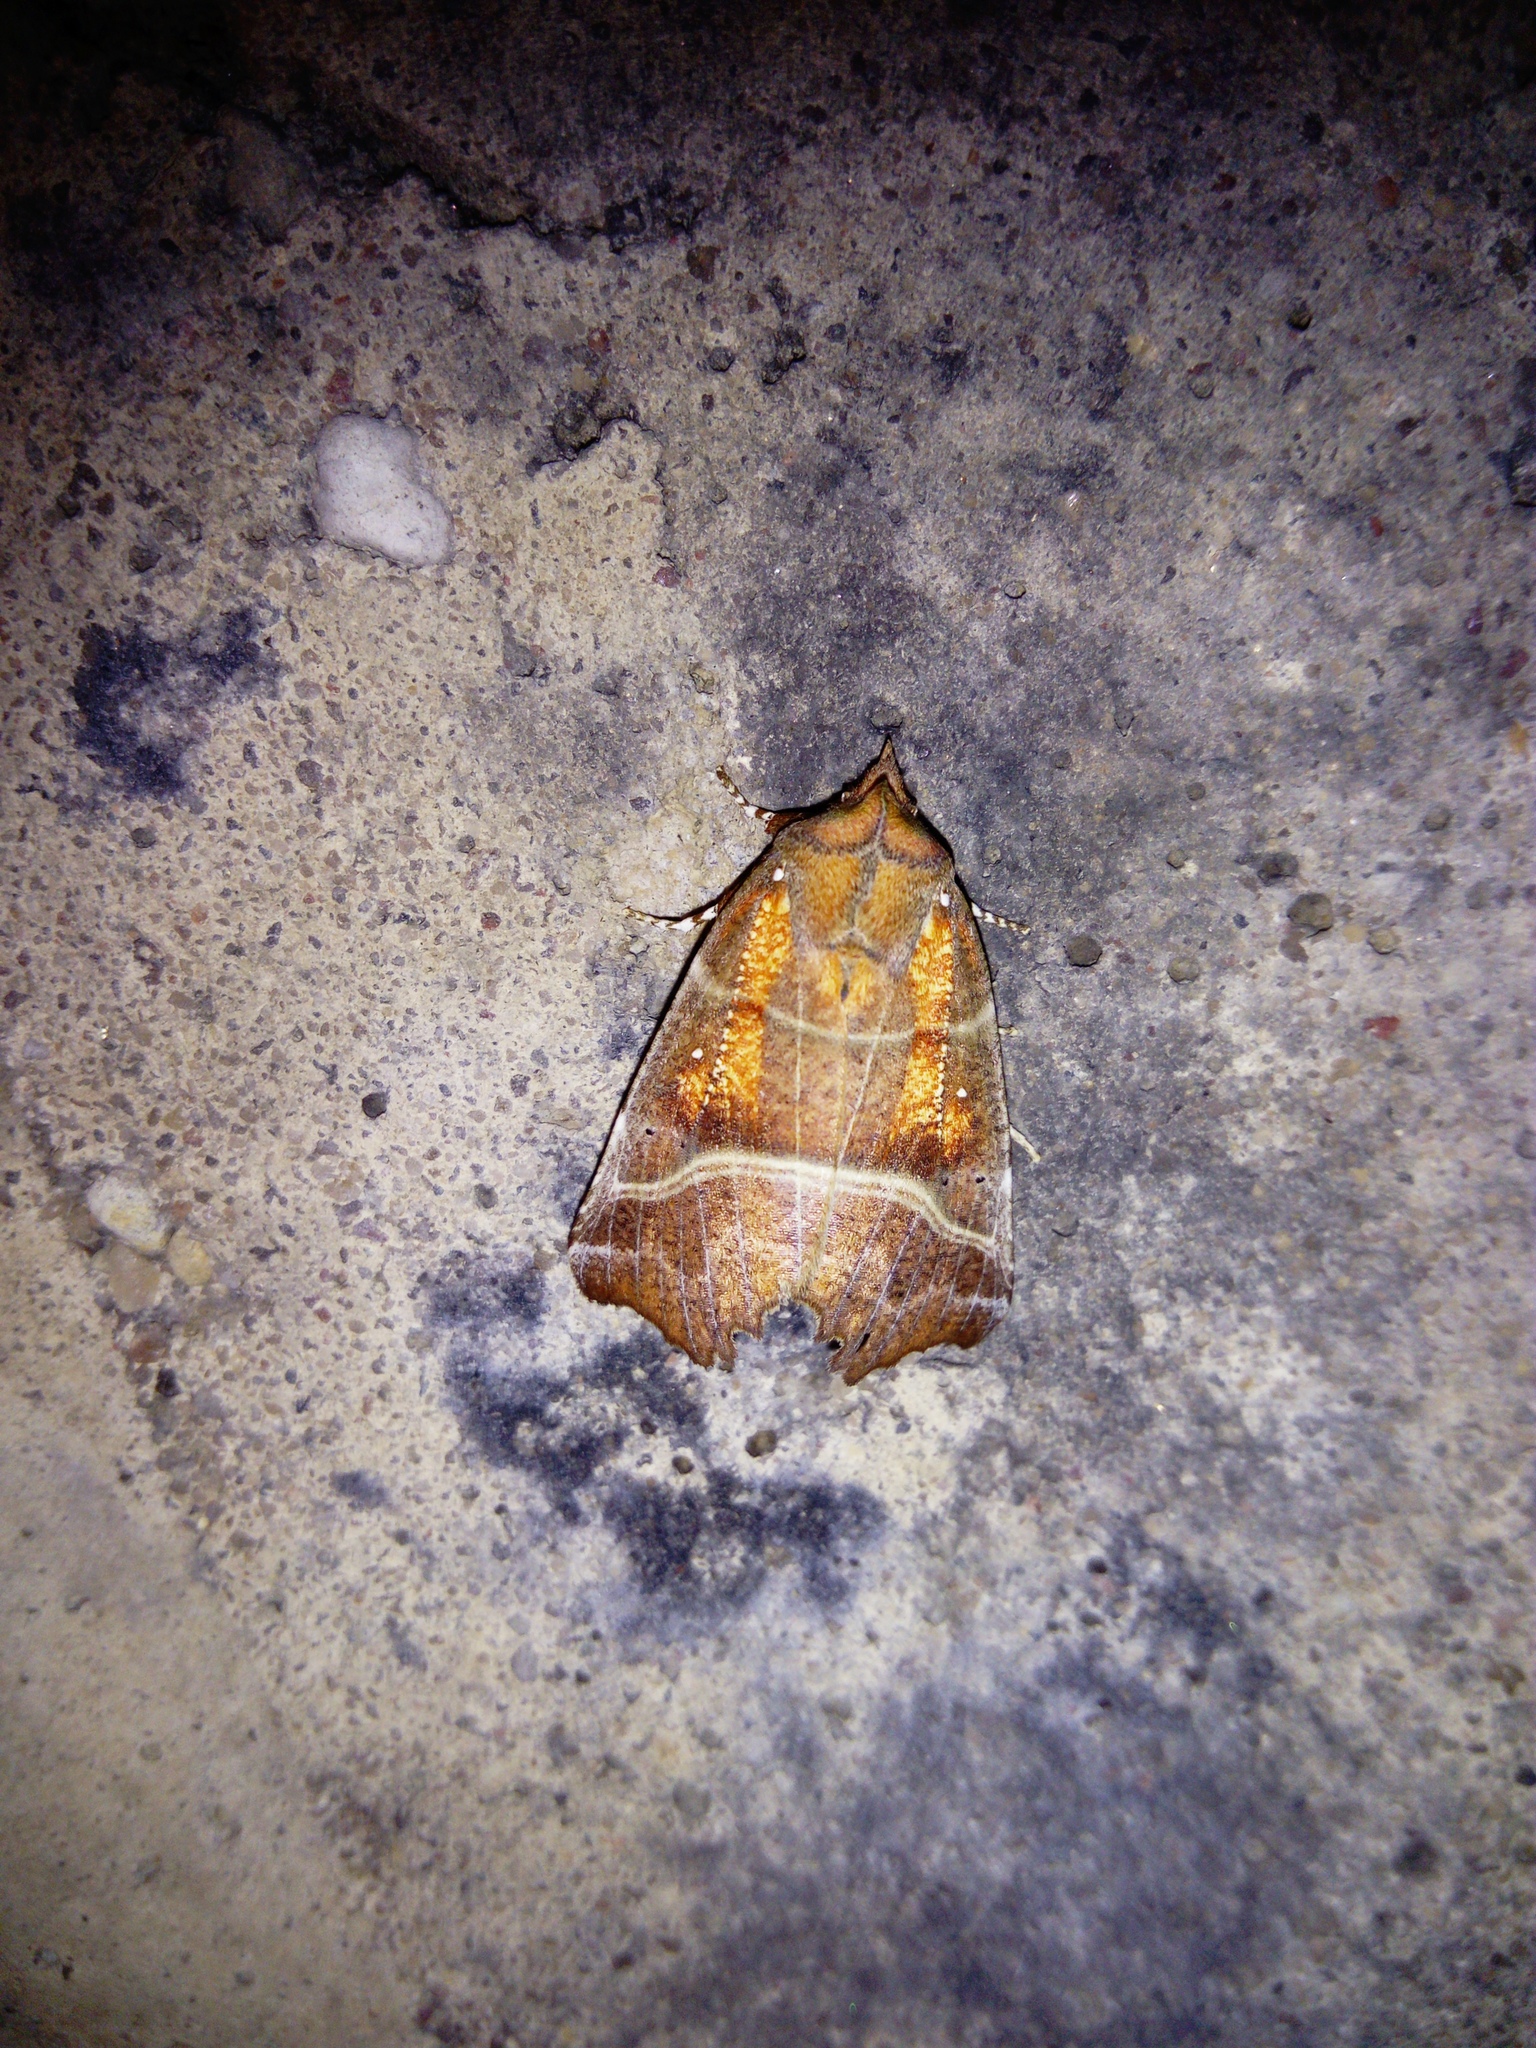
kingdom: Animalia
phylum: Arthropoda
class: Insecta
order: Lepidoptera
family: Erebidae
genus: Scoliopteryx
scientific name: Scoliopteryx libatrix
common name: Herald
